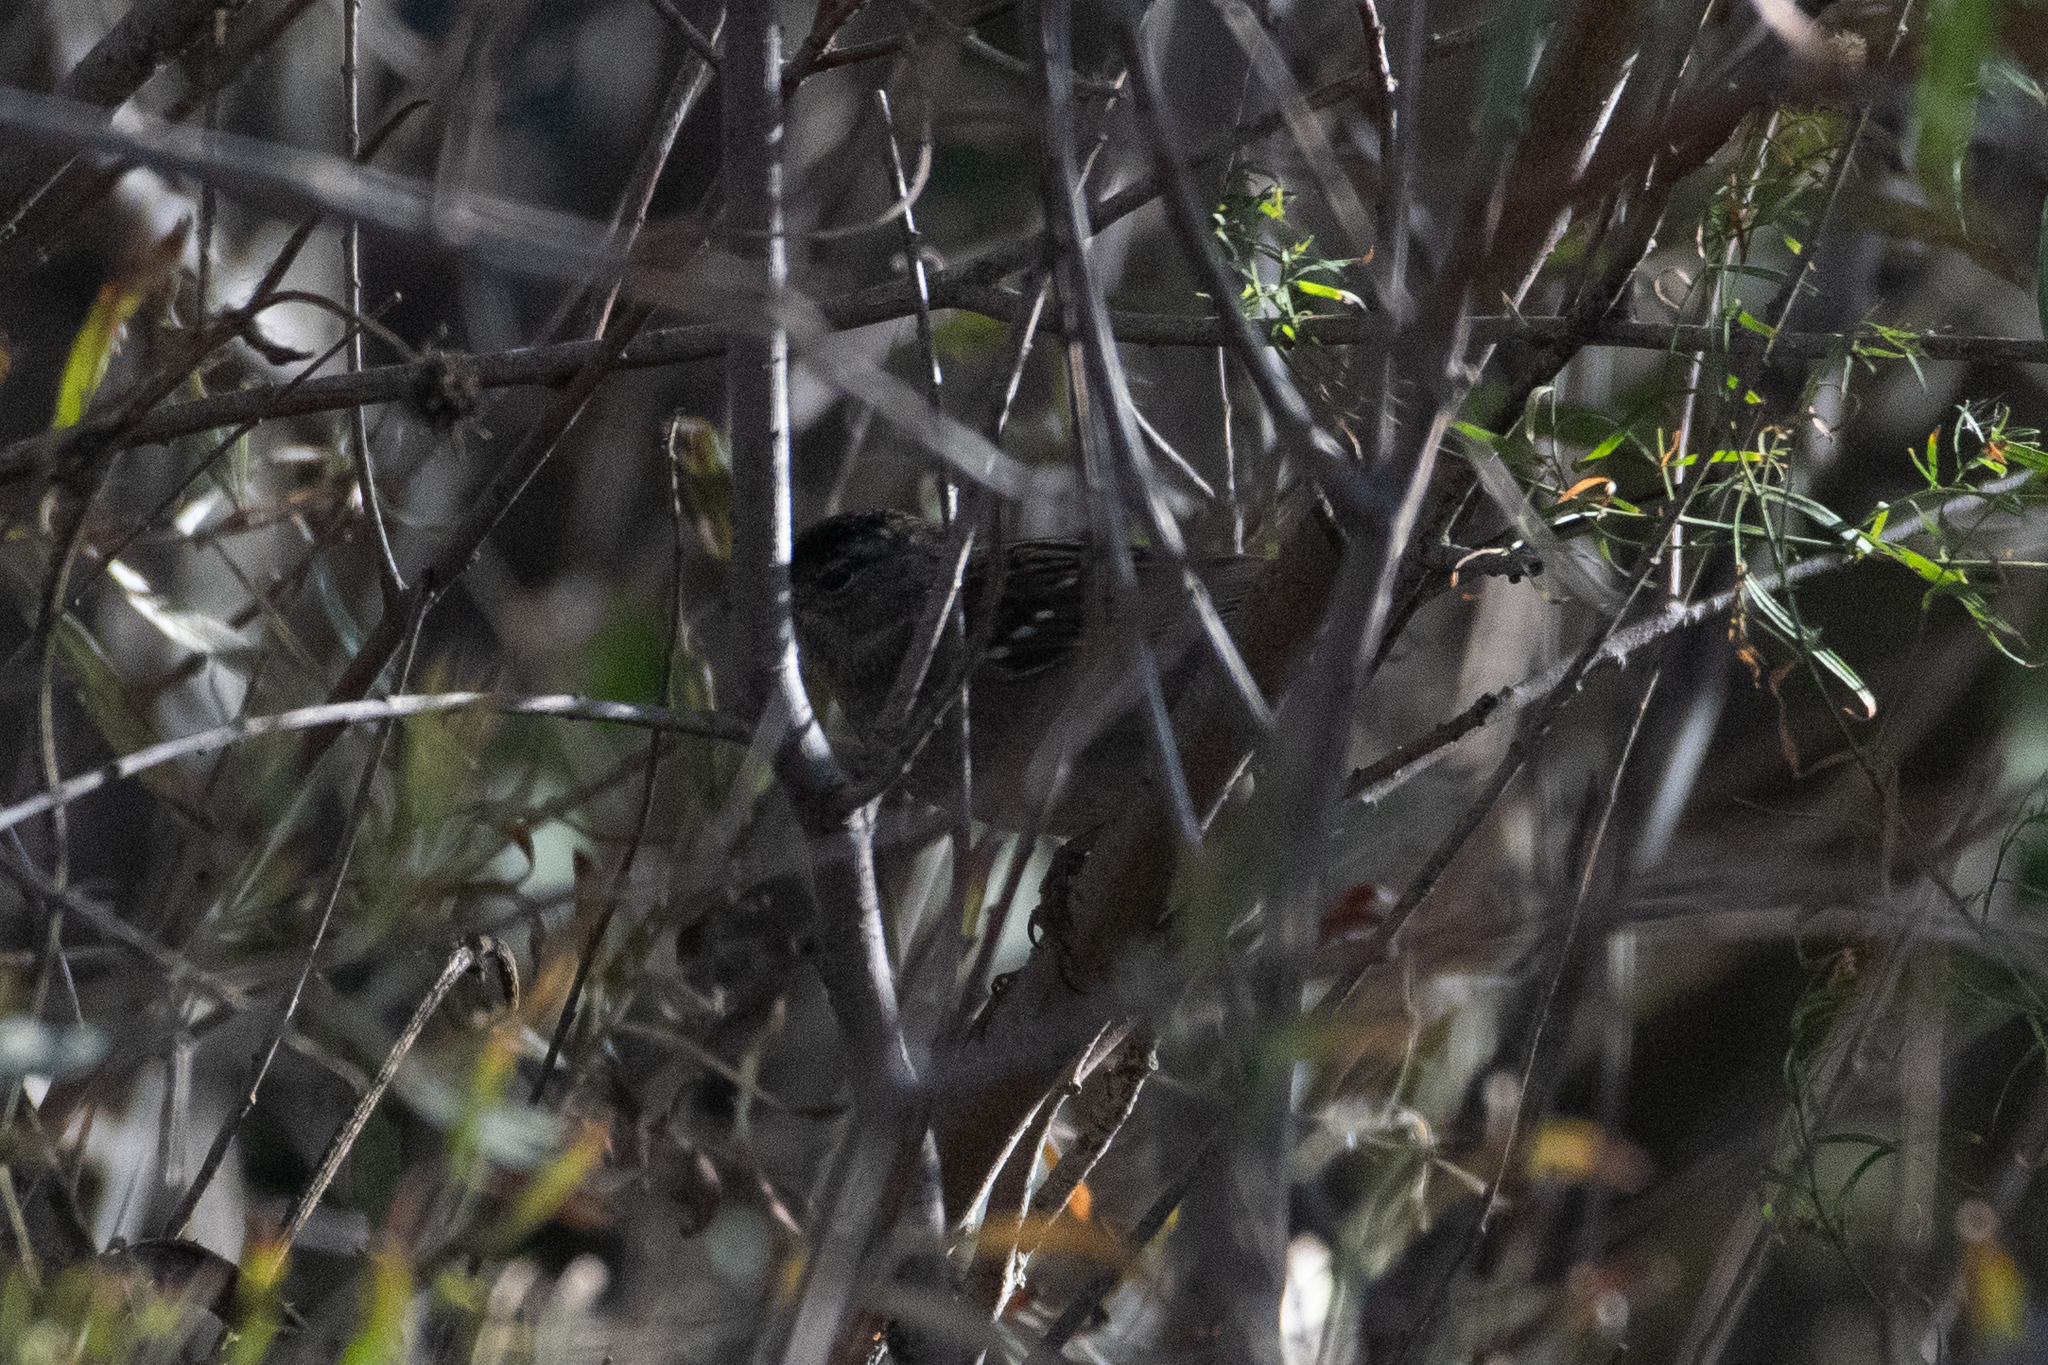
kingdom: Animalia
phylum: Chordata
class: Aves
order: Passeriformes
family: Passerellidae
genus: Zonotrichia
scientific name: Zonotrichia atricapilla
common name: Golden-crowned sparrow
